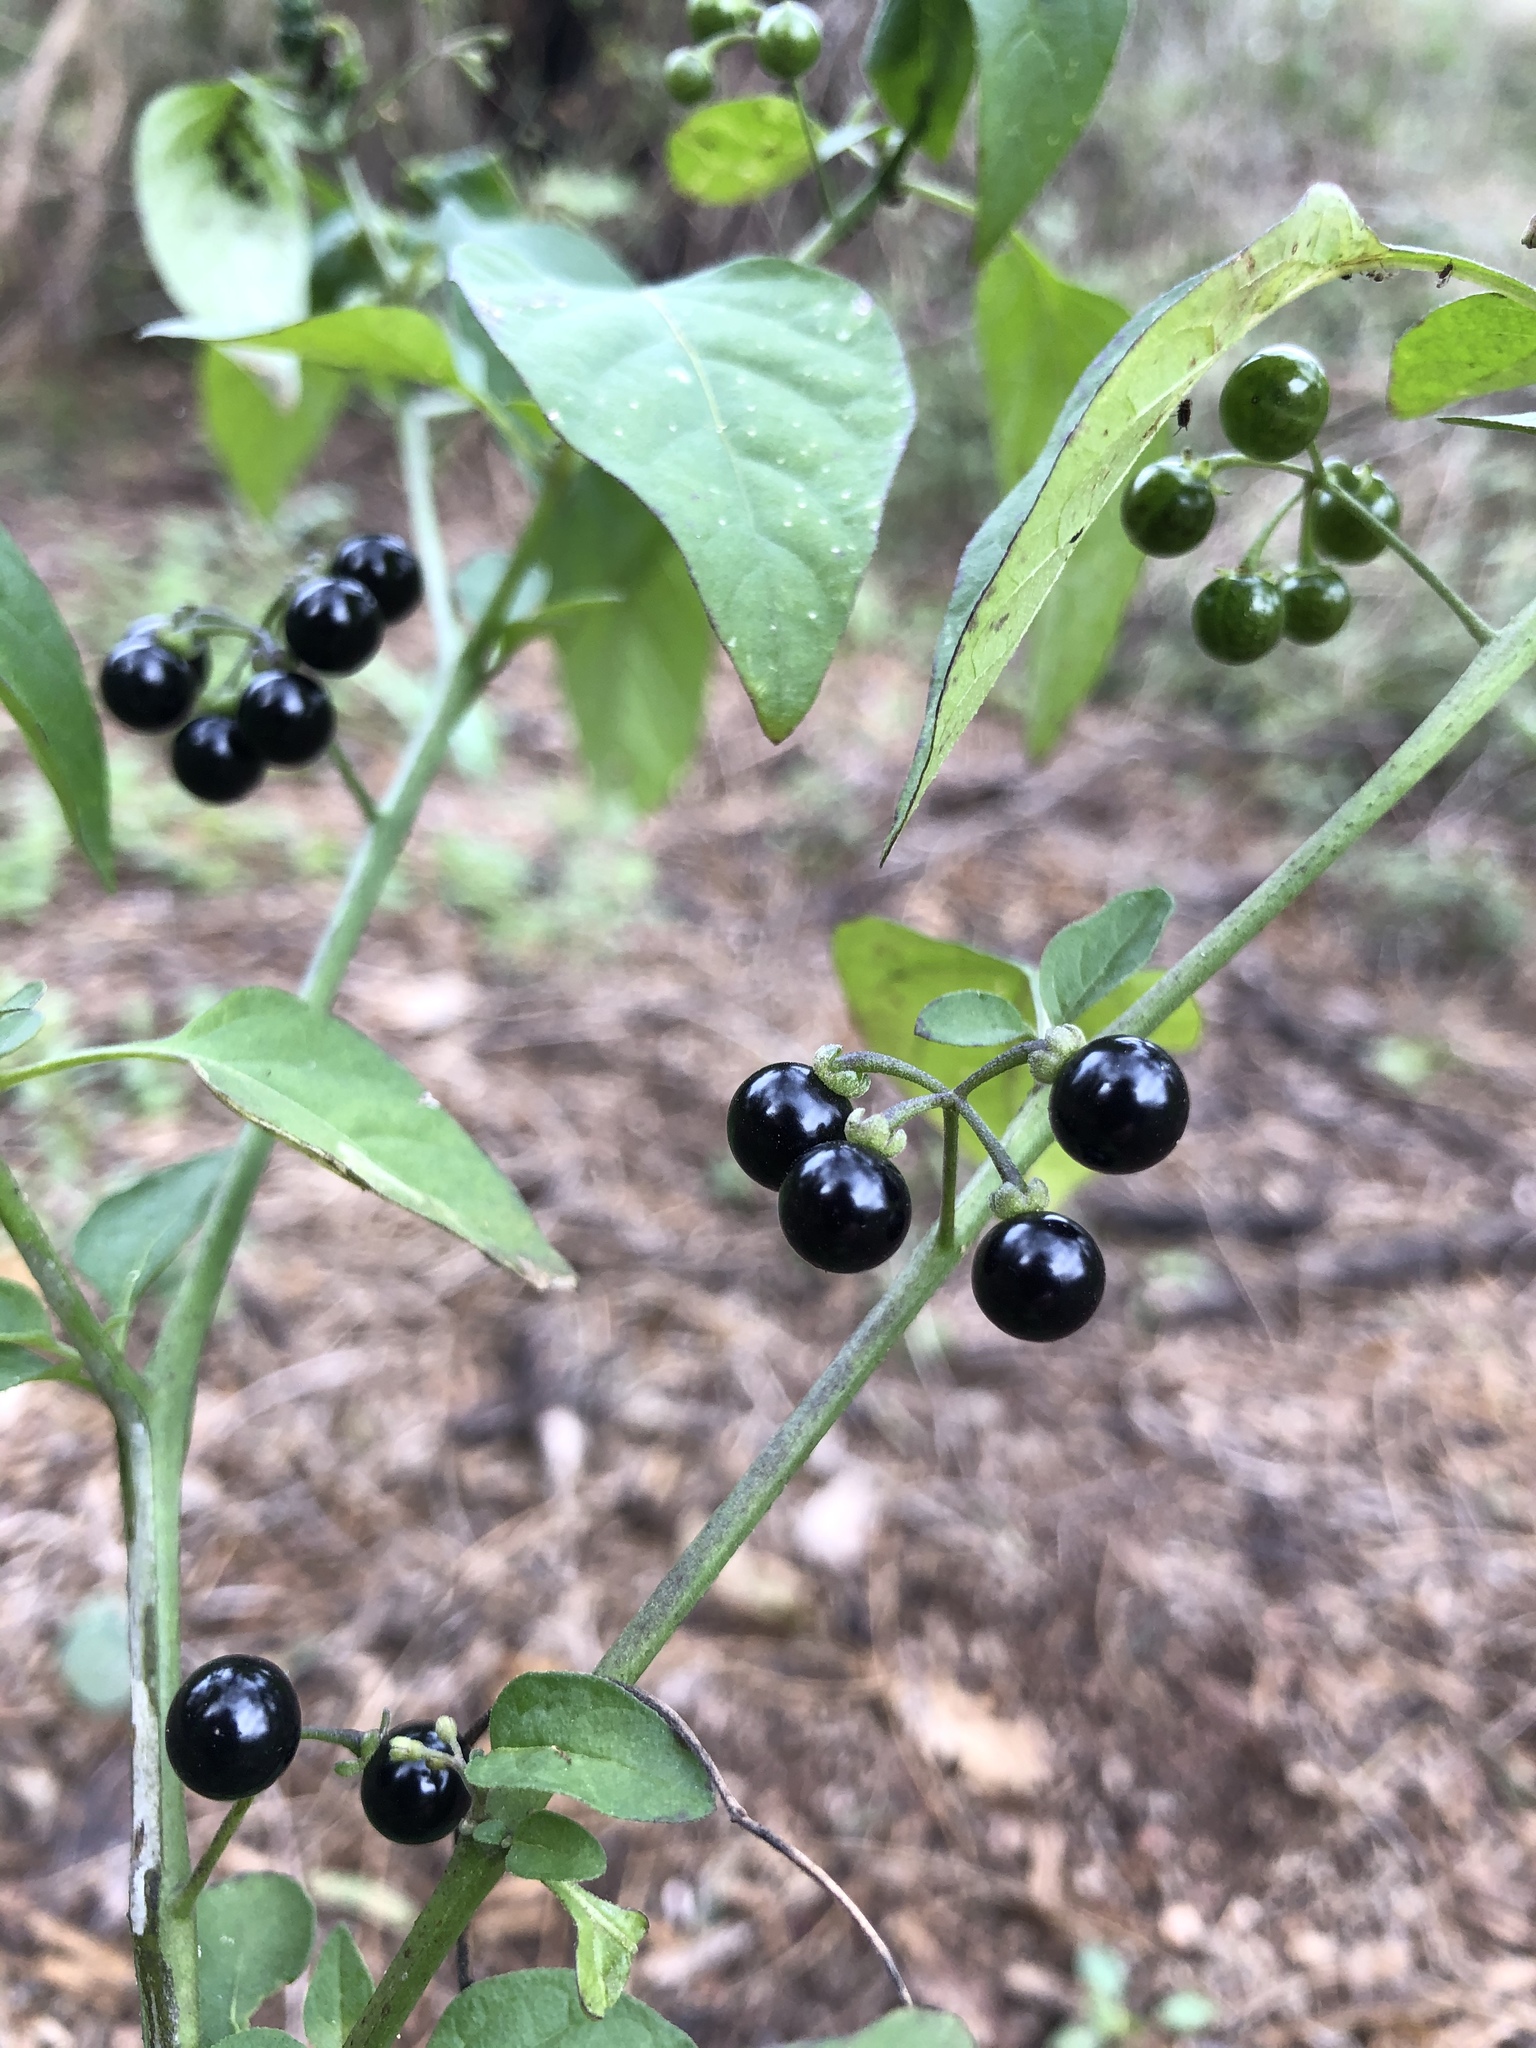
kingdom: Plantae
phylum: Tracheophyta
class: Magnoliopsida
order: Solanales
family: Solanaceae
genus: Solanum
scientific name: Solanum americanum
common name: American black nightshade
